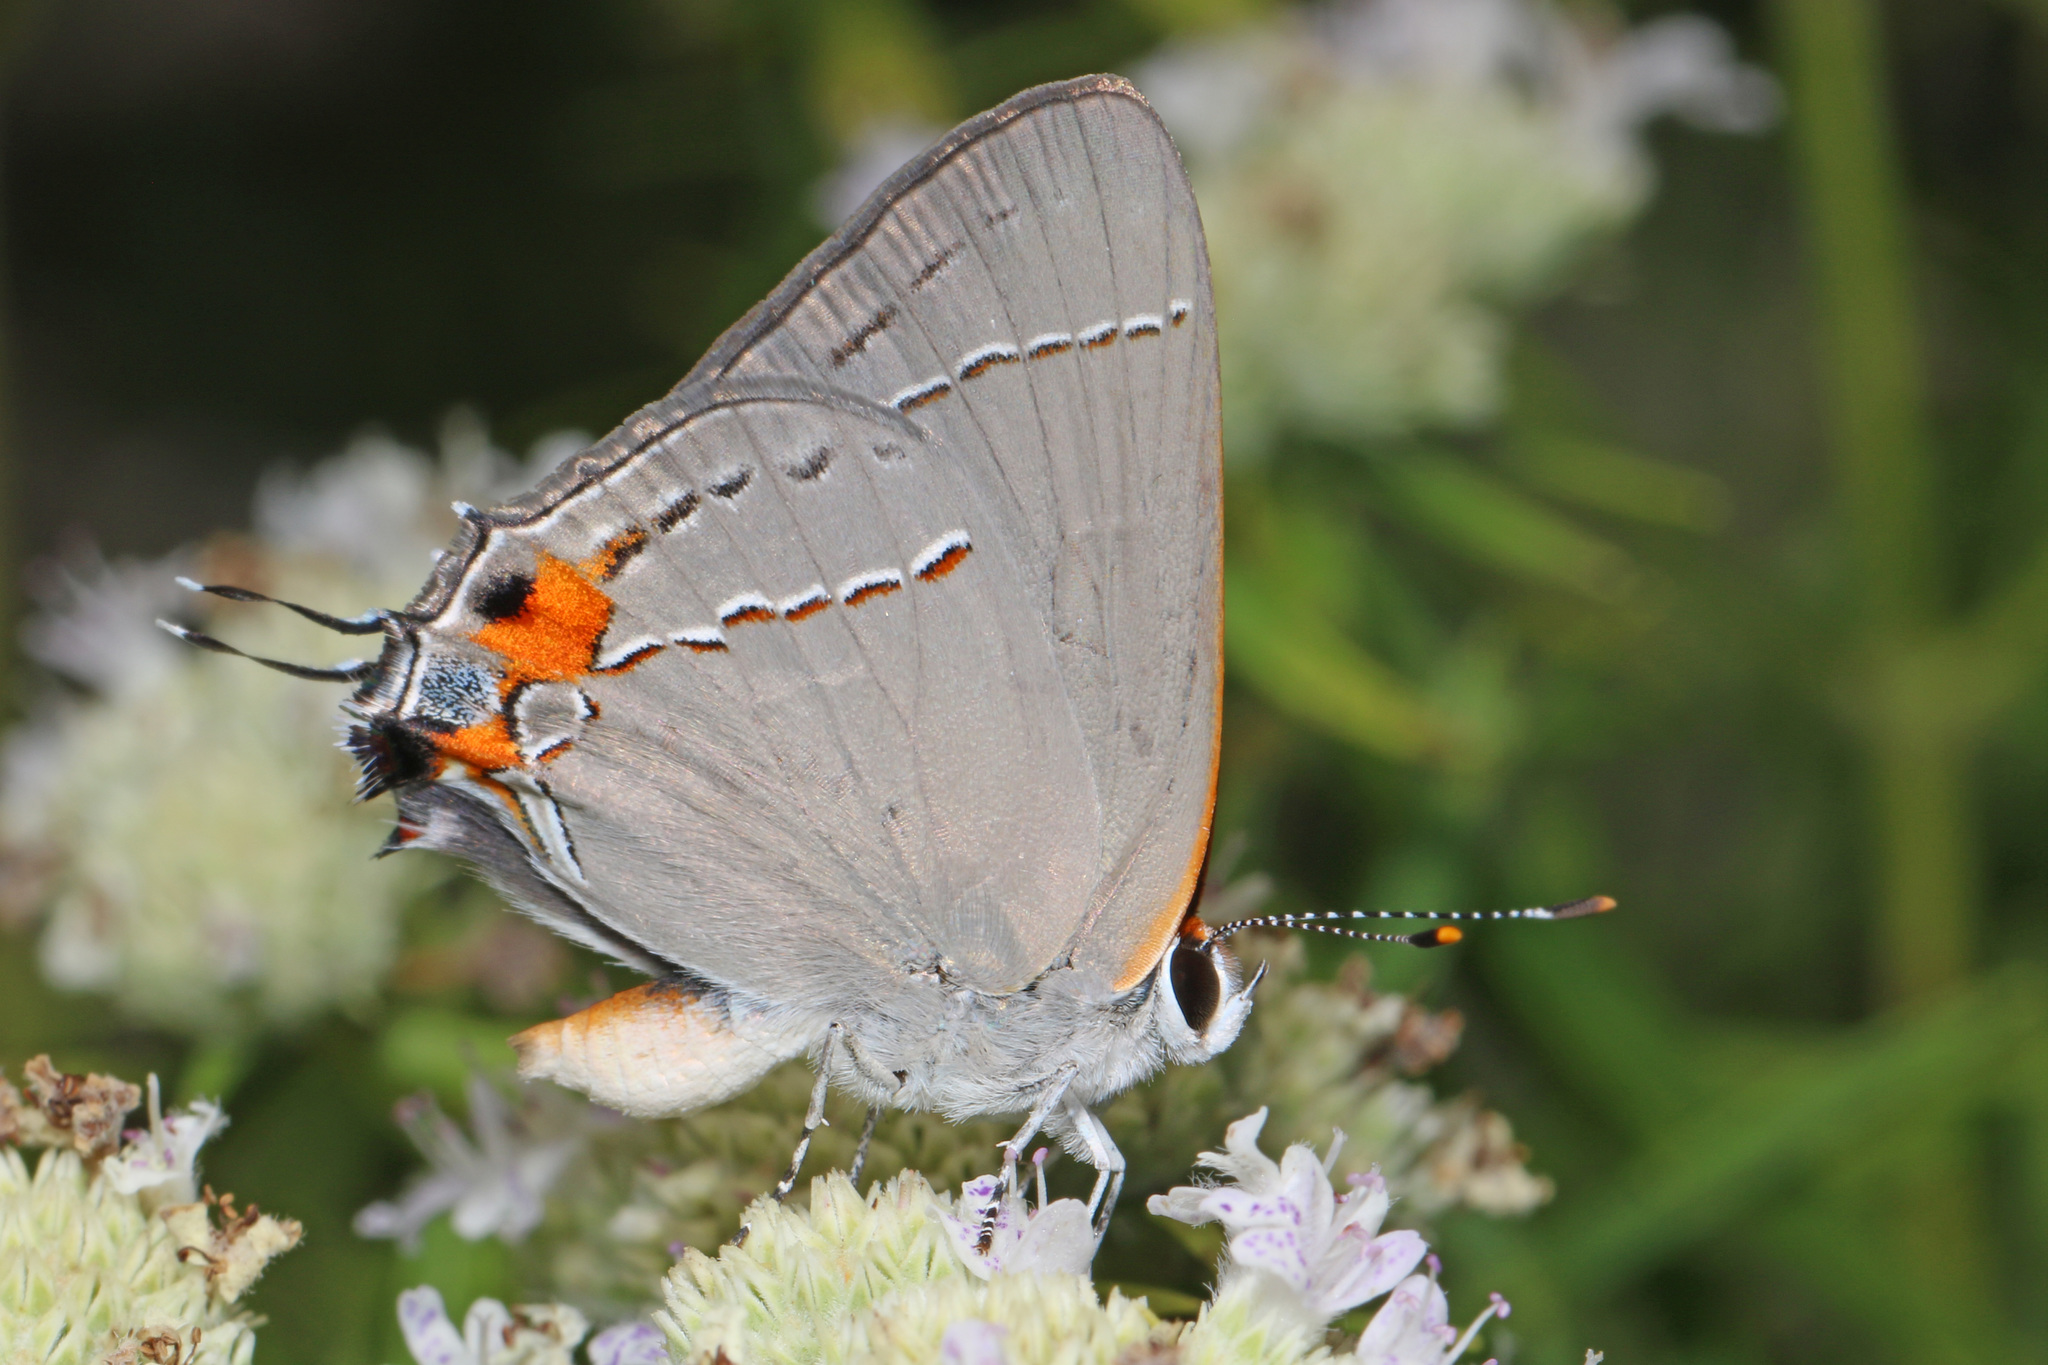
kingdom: Animalia
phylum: Arthropoda
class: Insecta
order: Lepidoptera
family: Lycaenidae
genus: Strymon
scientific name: Strymon melinus
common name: Gray hairstreak
